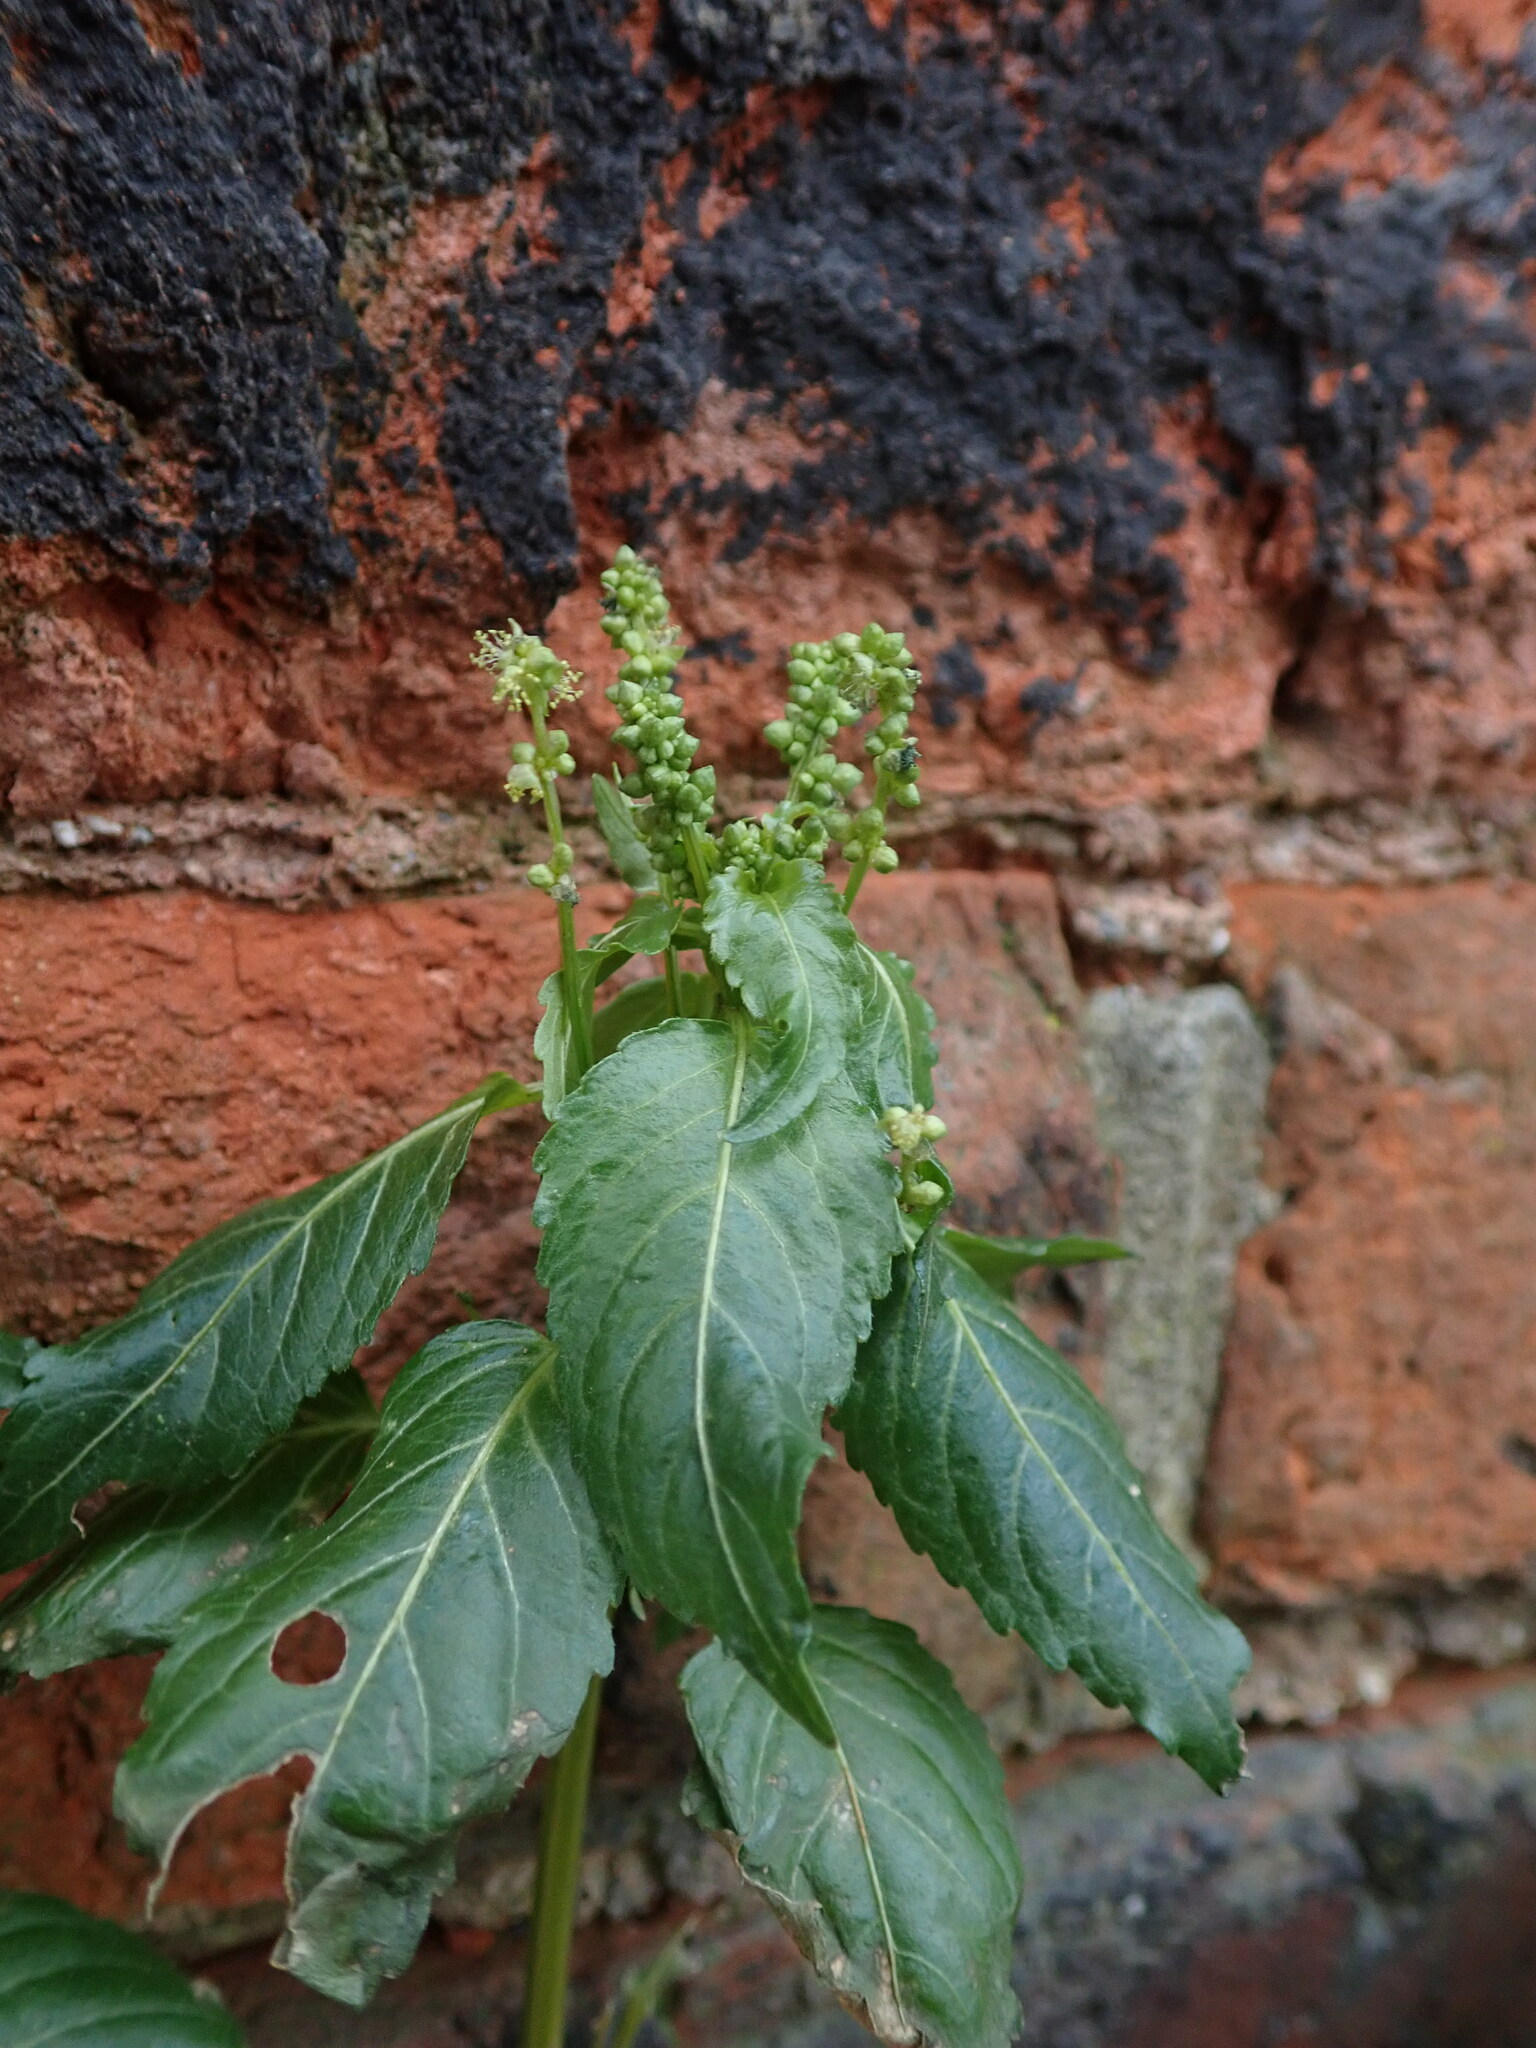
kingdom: Plantae
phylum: Tracheophyta
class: Magnoliopsida
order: Malpighiales
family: Euphorbiaceae
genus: Mercurialis
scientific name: Mercurialis annua
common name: Annual mercury
